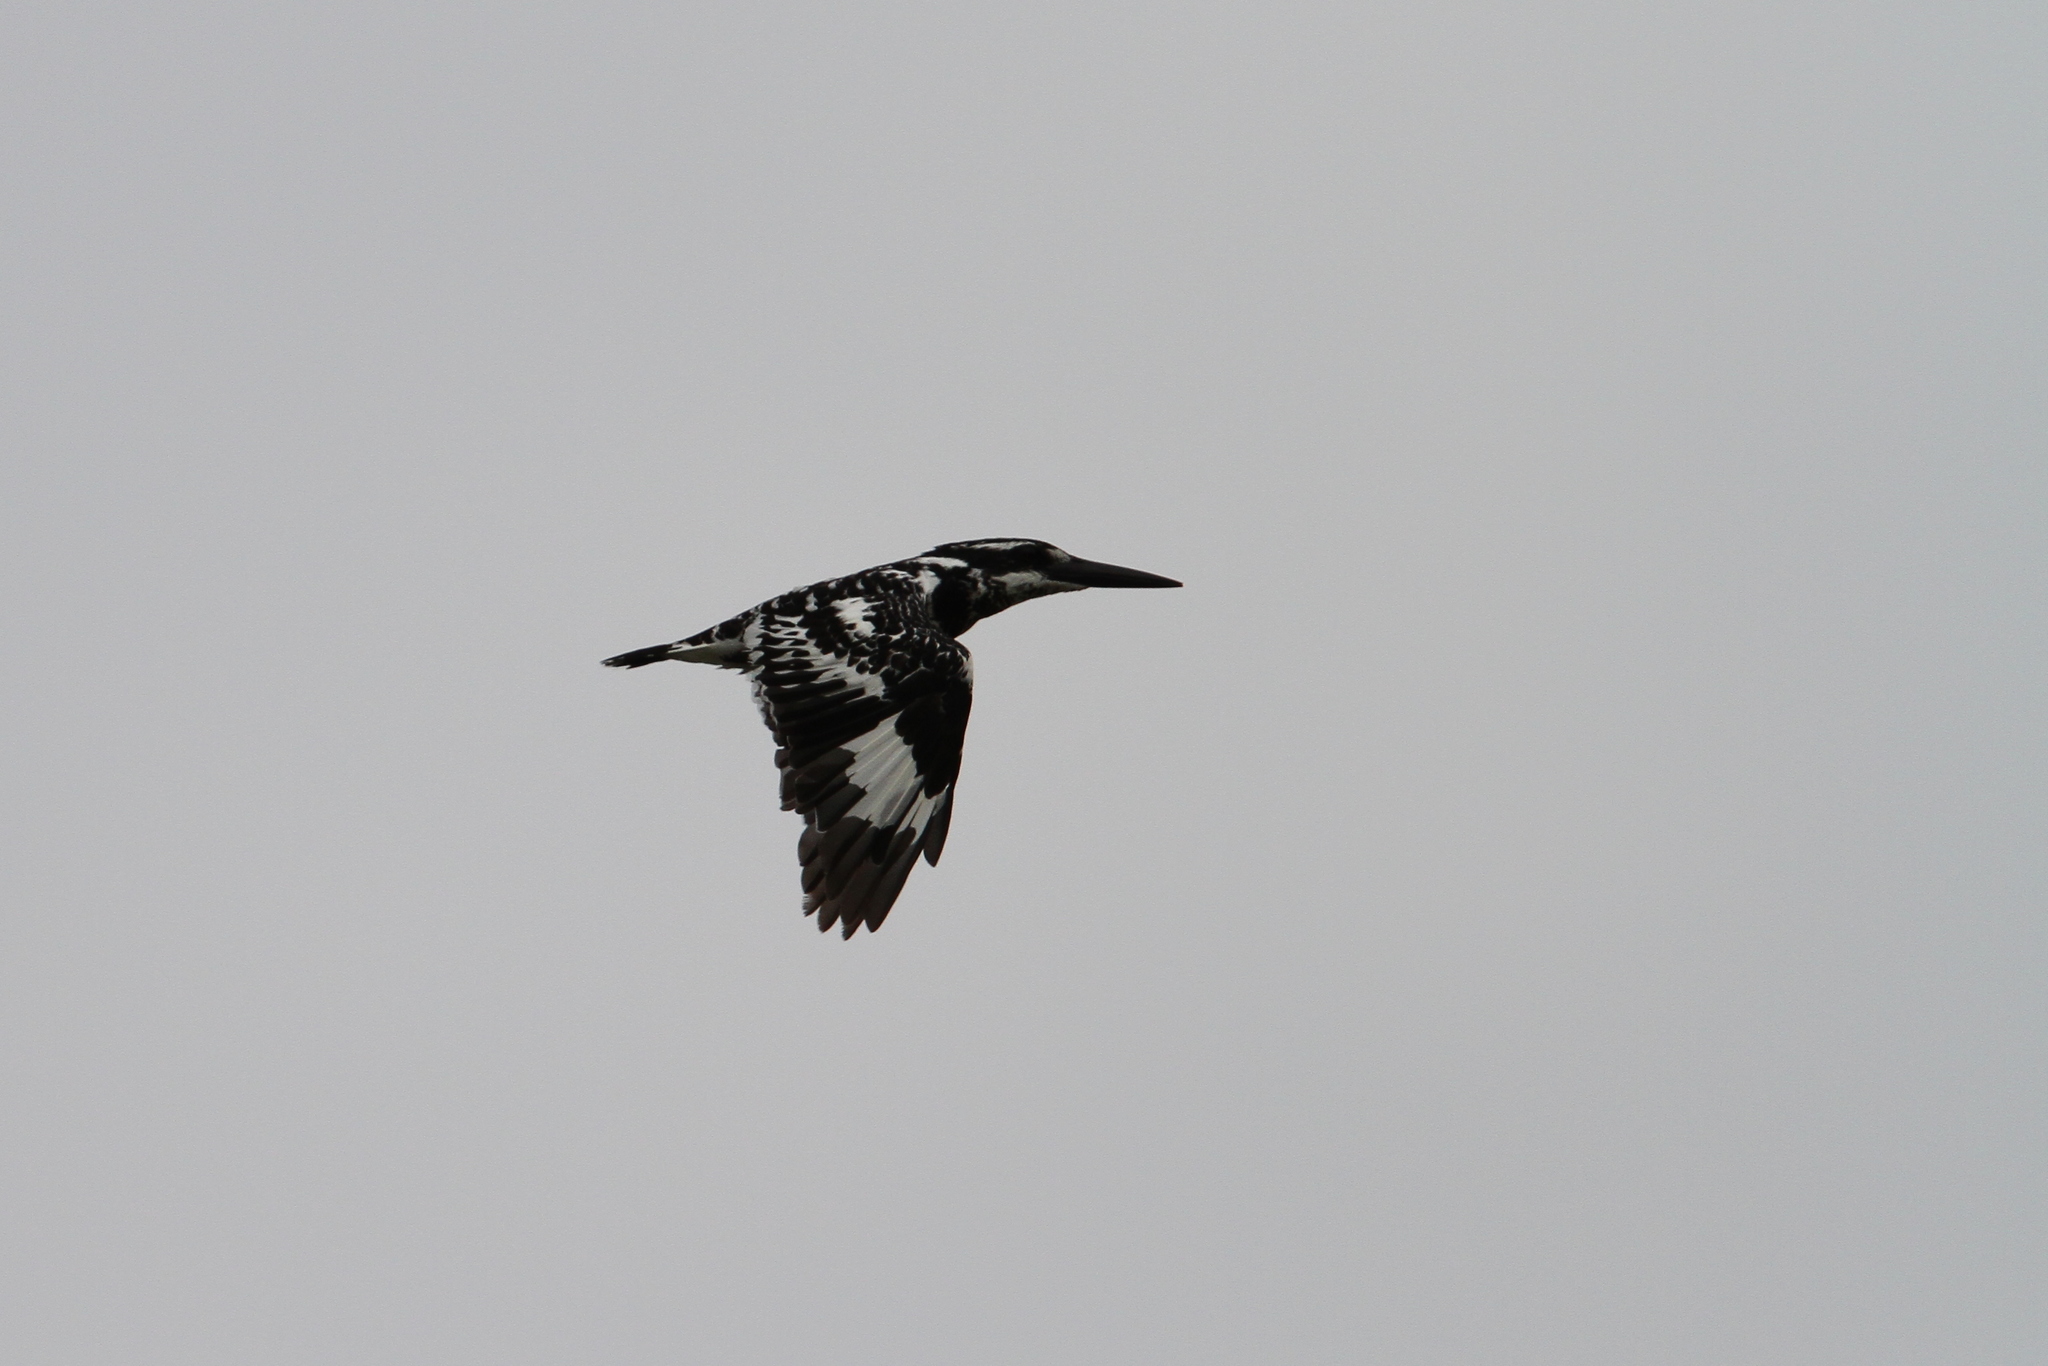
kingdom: Animalia
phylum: Chordata
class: Aves
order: Coraciiformes
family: Alcedinidae
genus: Ceryle
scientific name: Ceryle rudis
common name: Pied kingfisher
